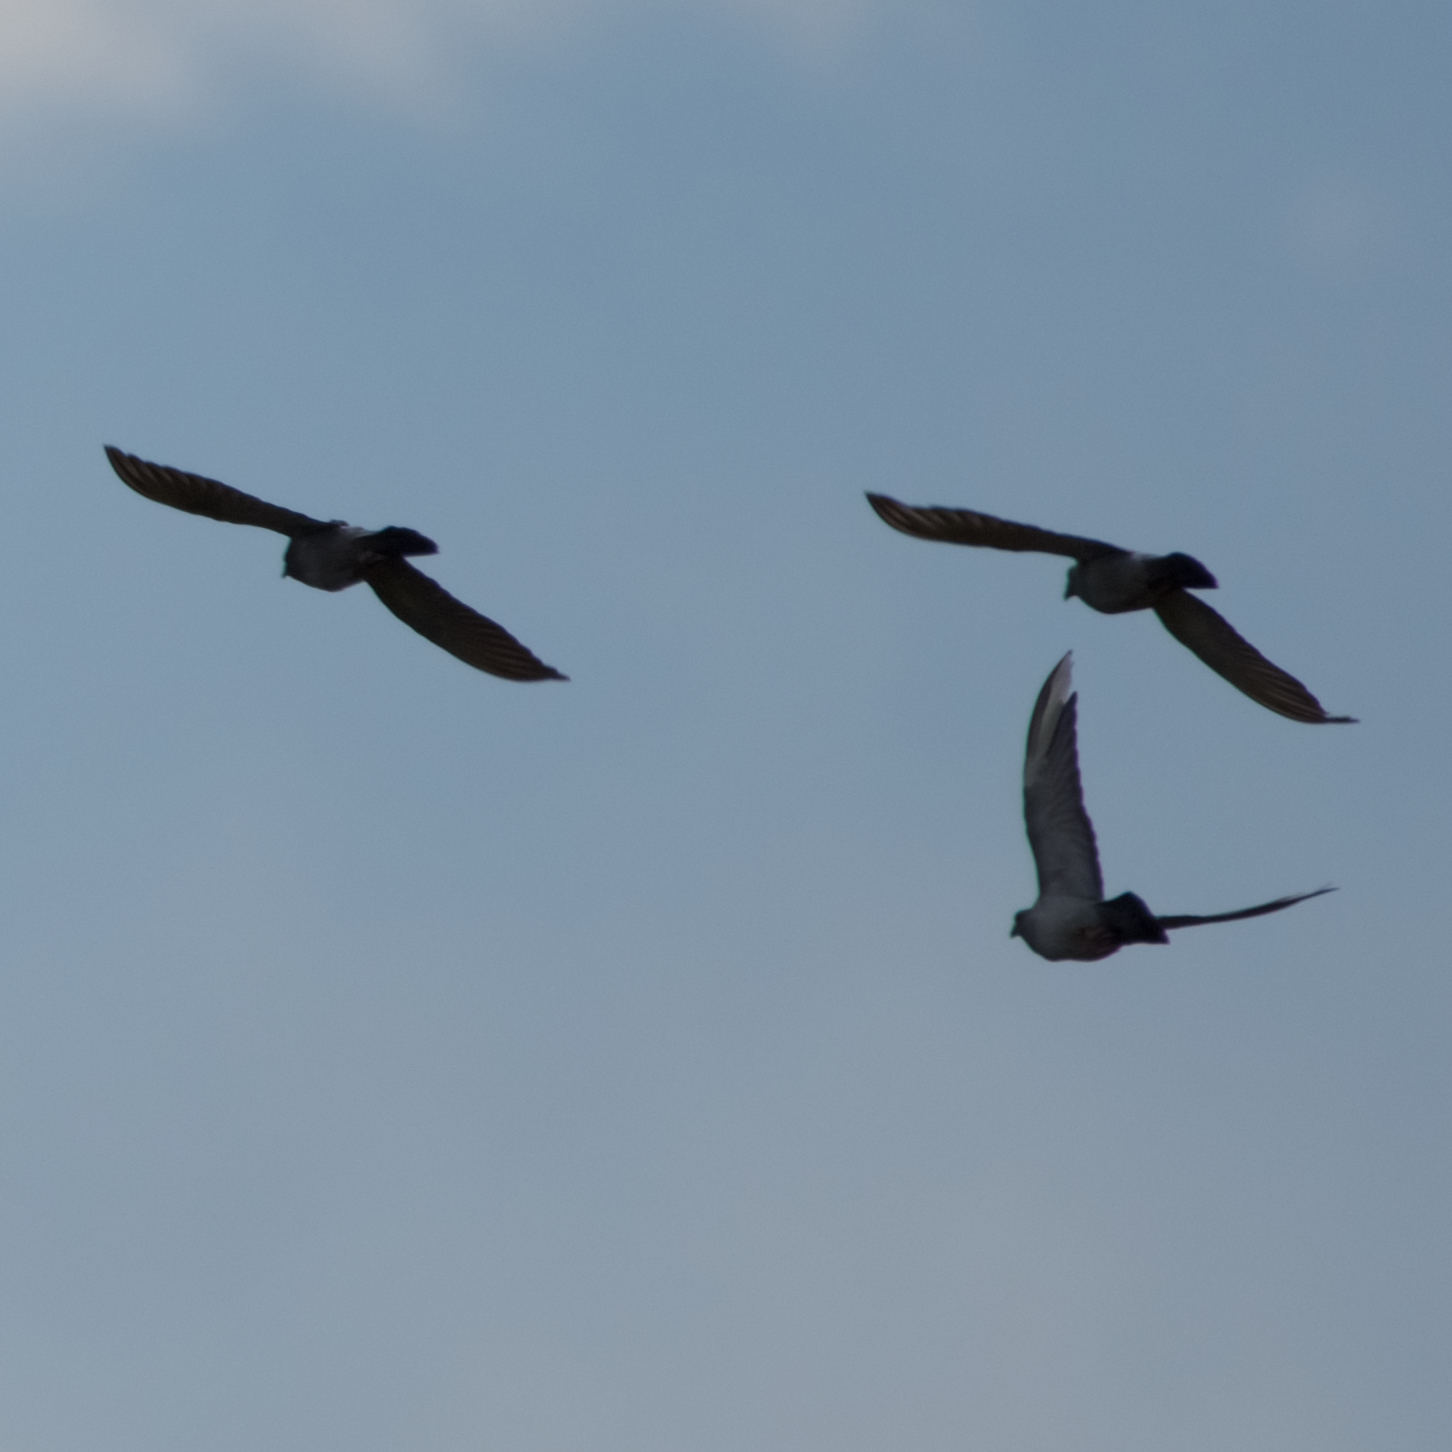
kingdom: Animalia
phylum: Chordata
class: Aves
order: Columbiformes
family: Columbidae
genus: Columba
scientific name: Columba livia
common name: Rock pigeon
